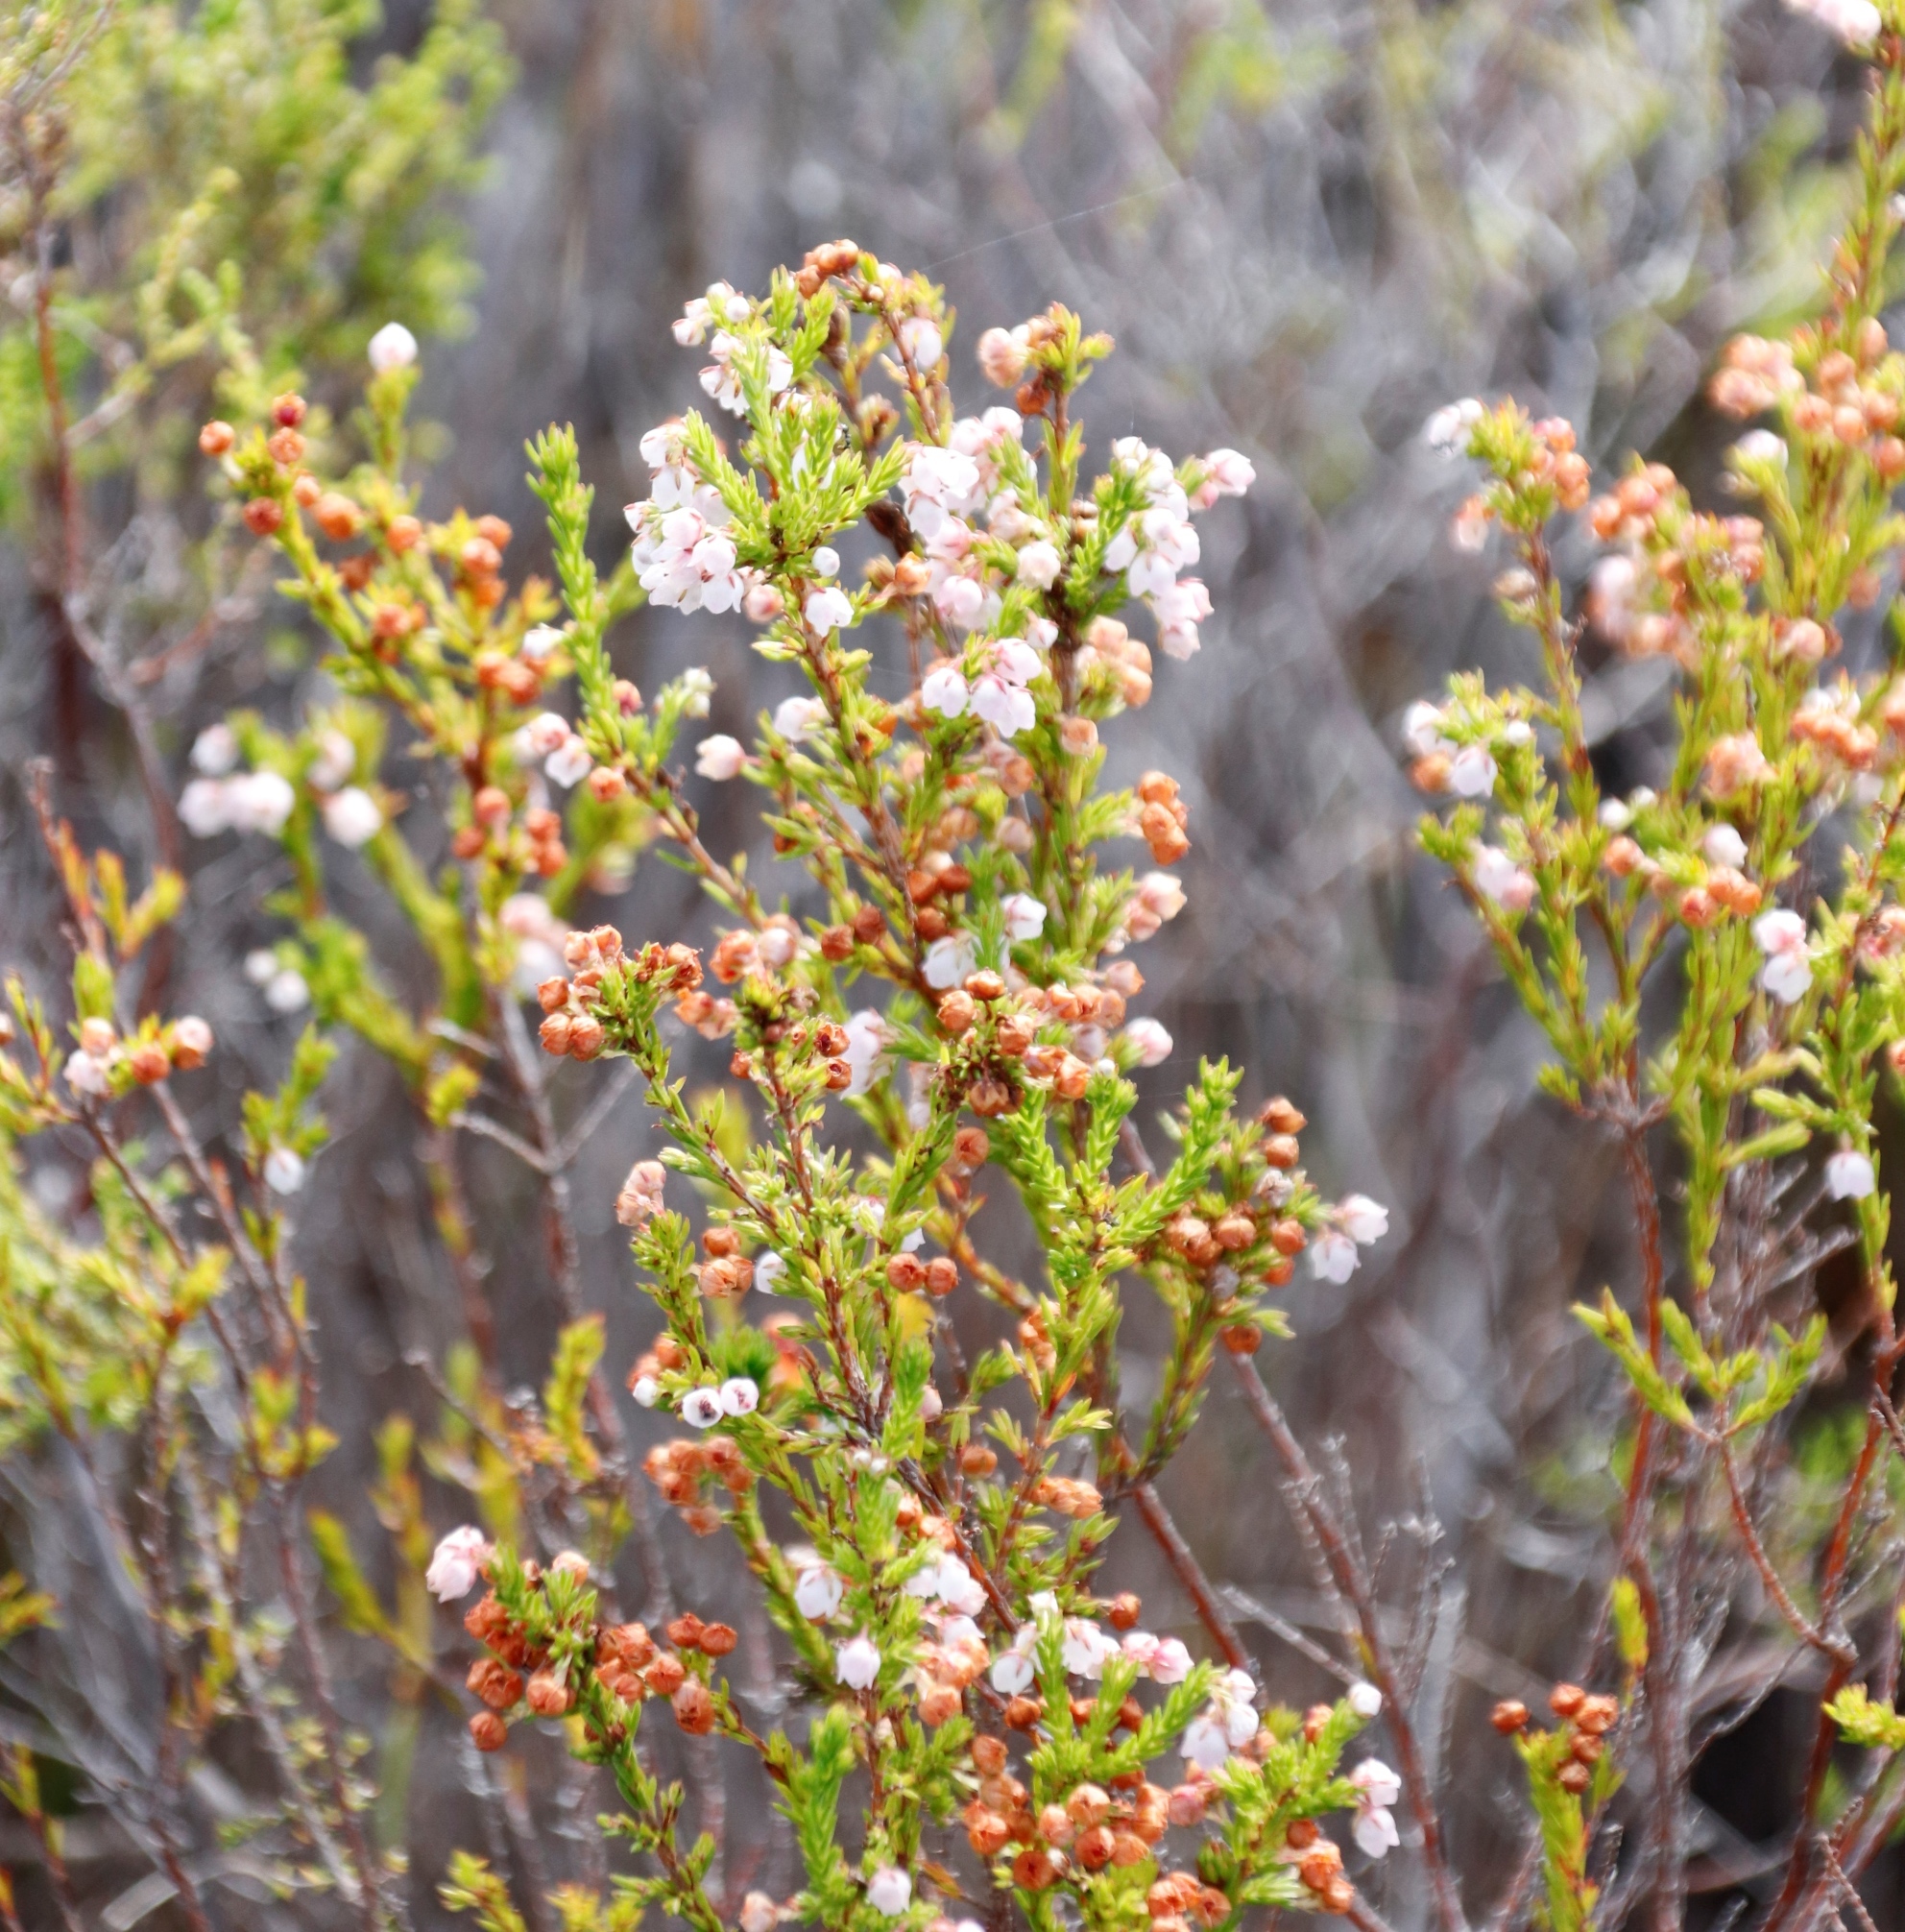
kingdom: Plantae
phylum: Tracheophyta
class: Magnoliopsida
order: Ericales
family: Ericaceae
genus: Erica
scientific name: Erica subdivaricata
